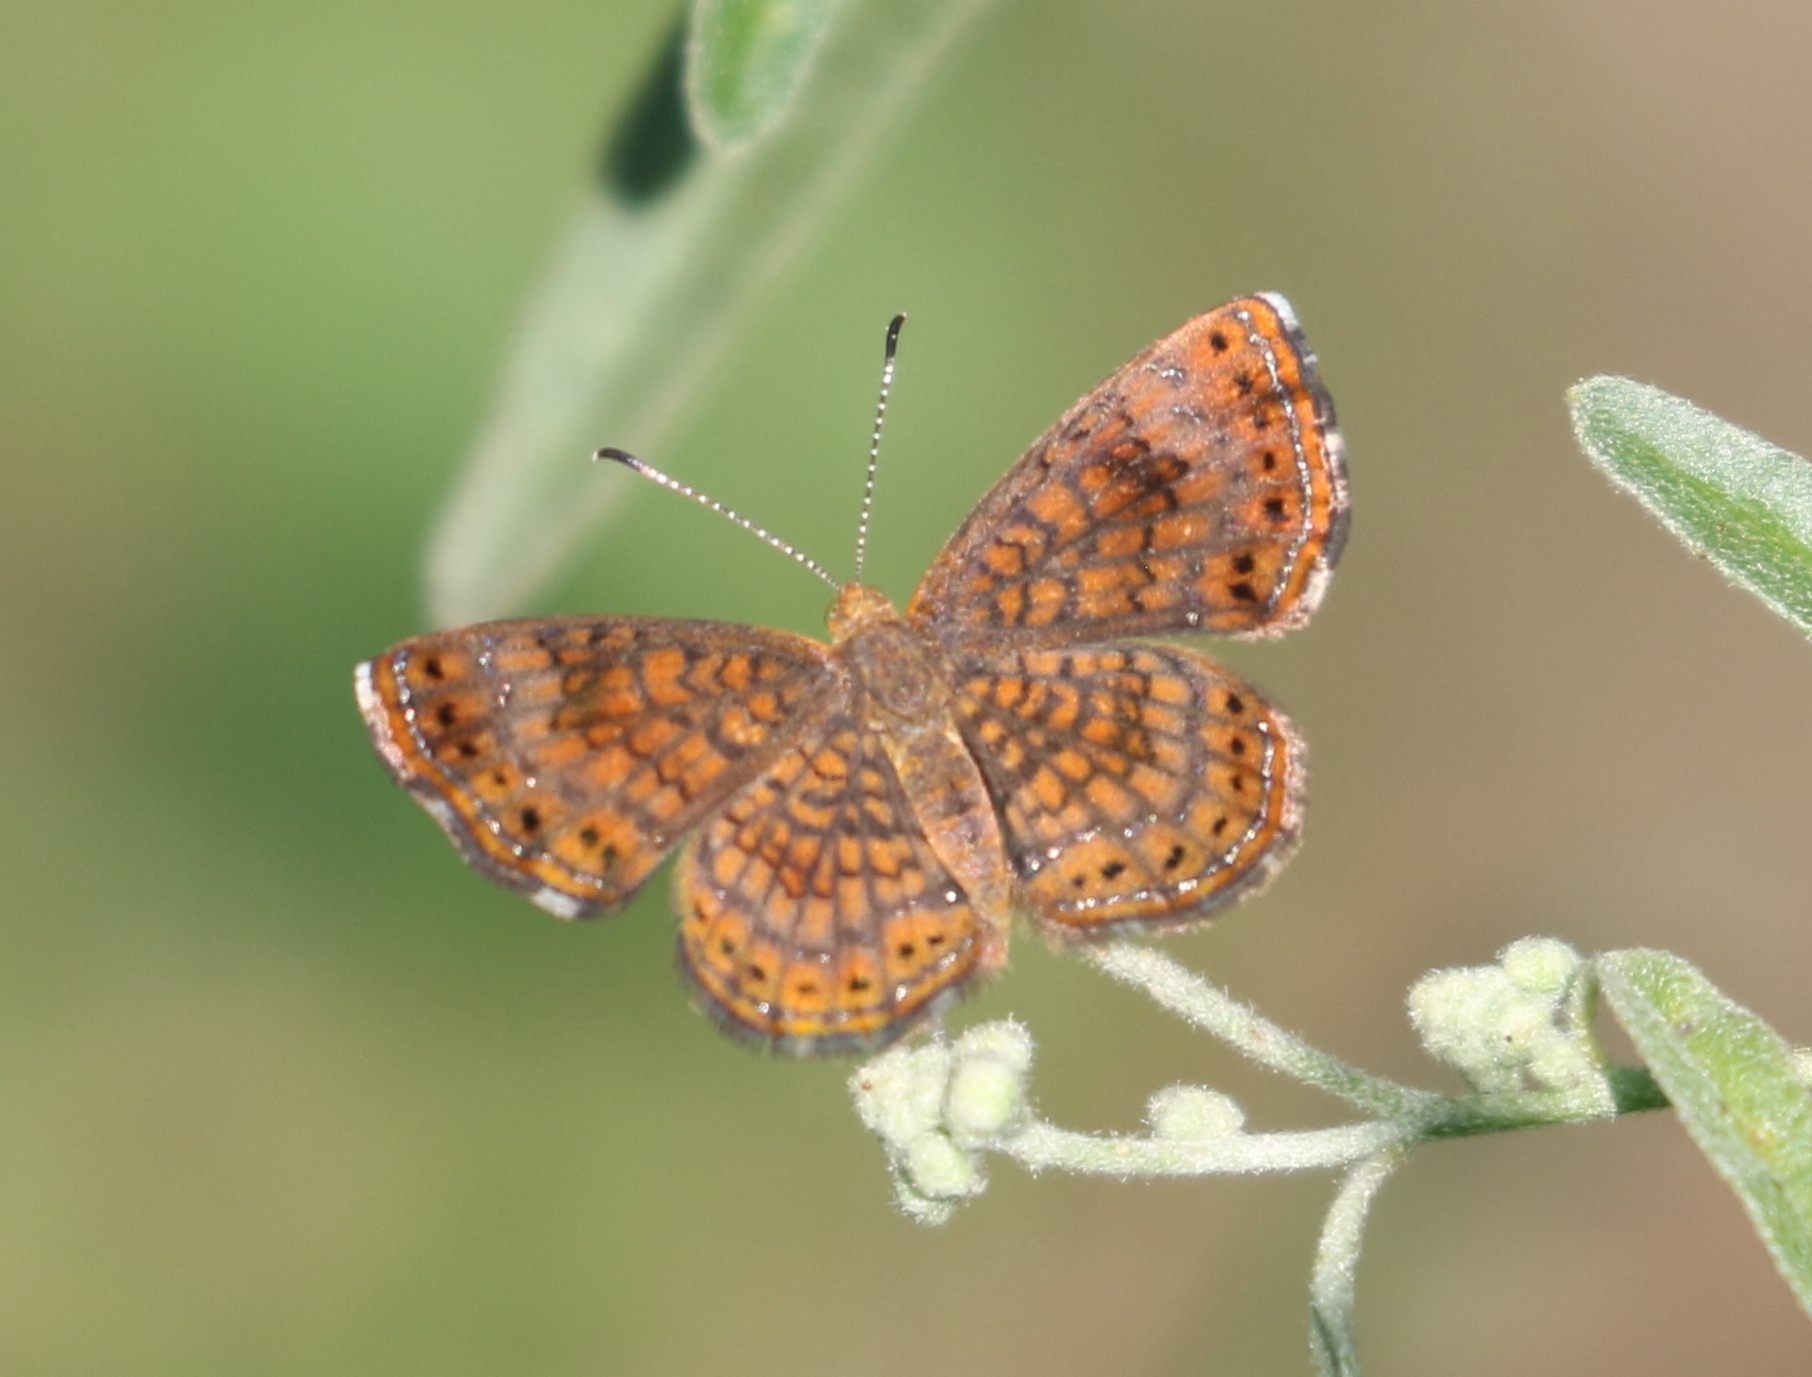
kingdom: Animalia
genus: Calephelis
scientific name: Calephelis nemesis
